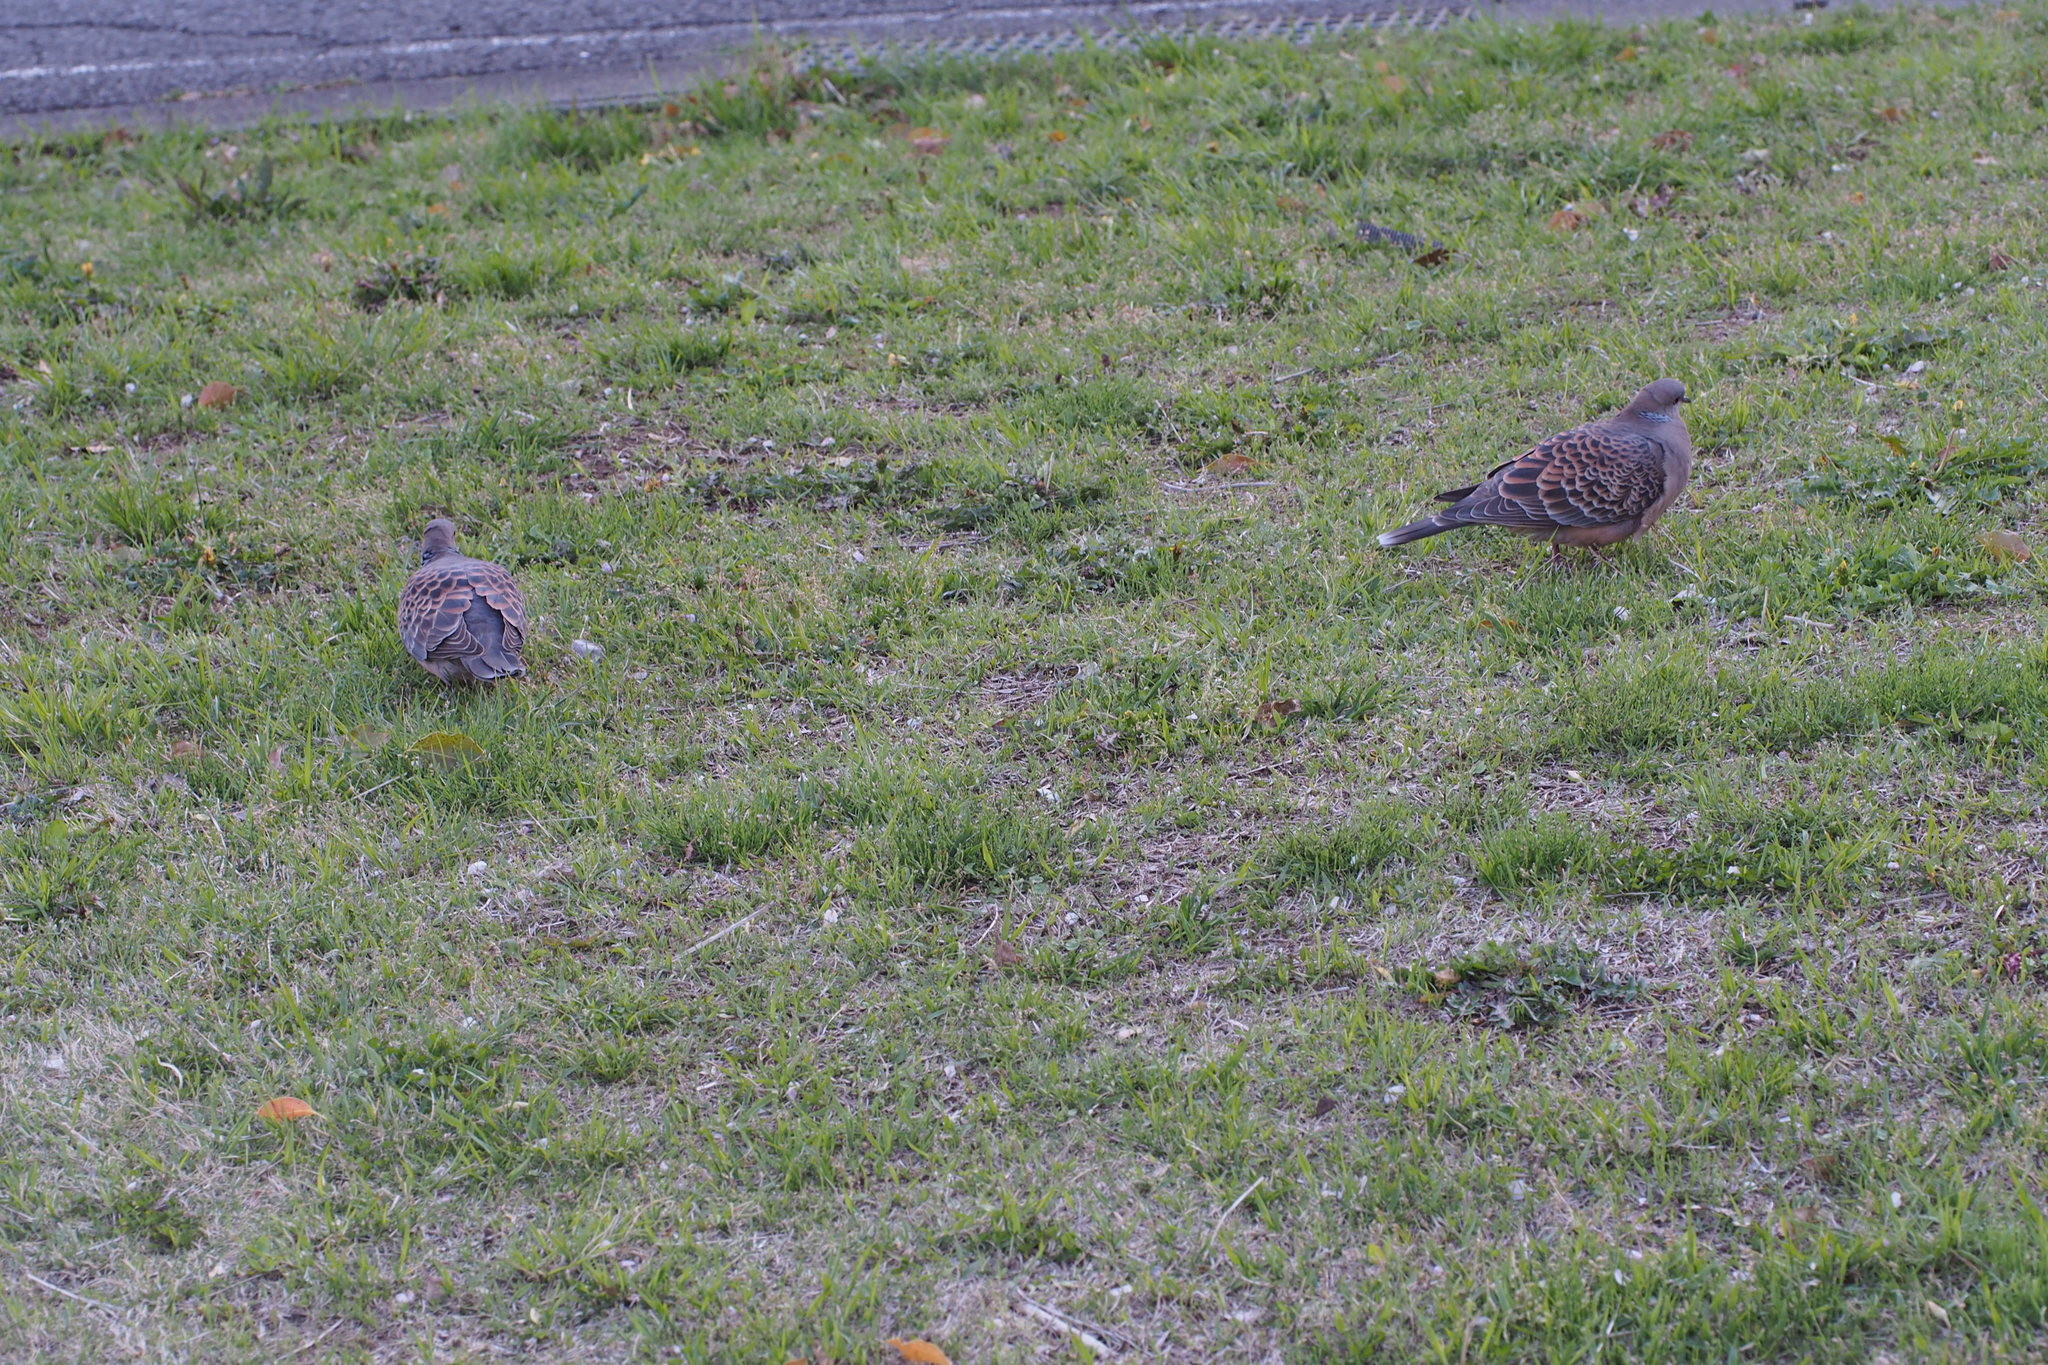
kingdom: Animalia
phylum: Chordata
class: Aves
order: Columbiformes
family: Columbidae
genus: Streptopelia
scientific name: Streptopelia orientalis
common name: Oriental turtle dove
